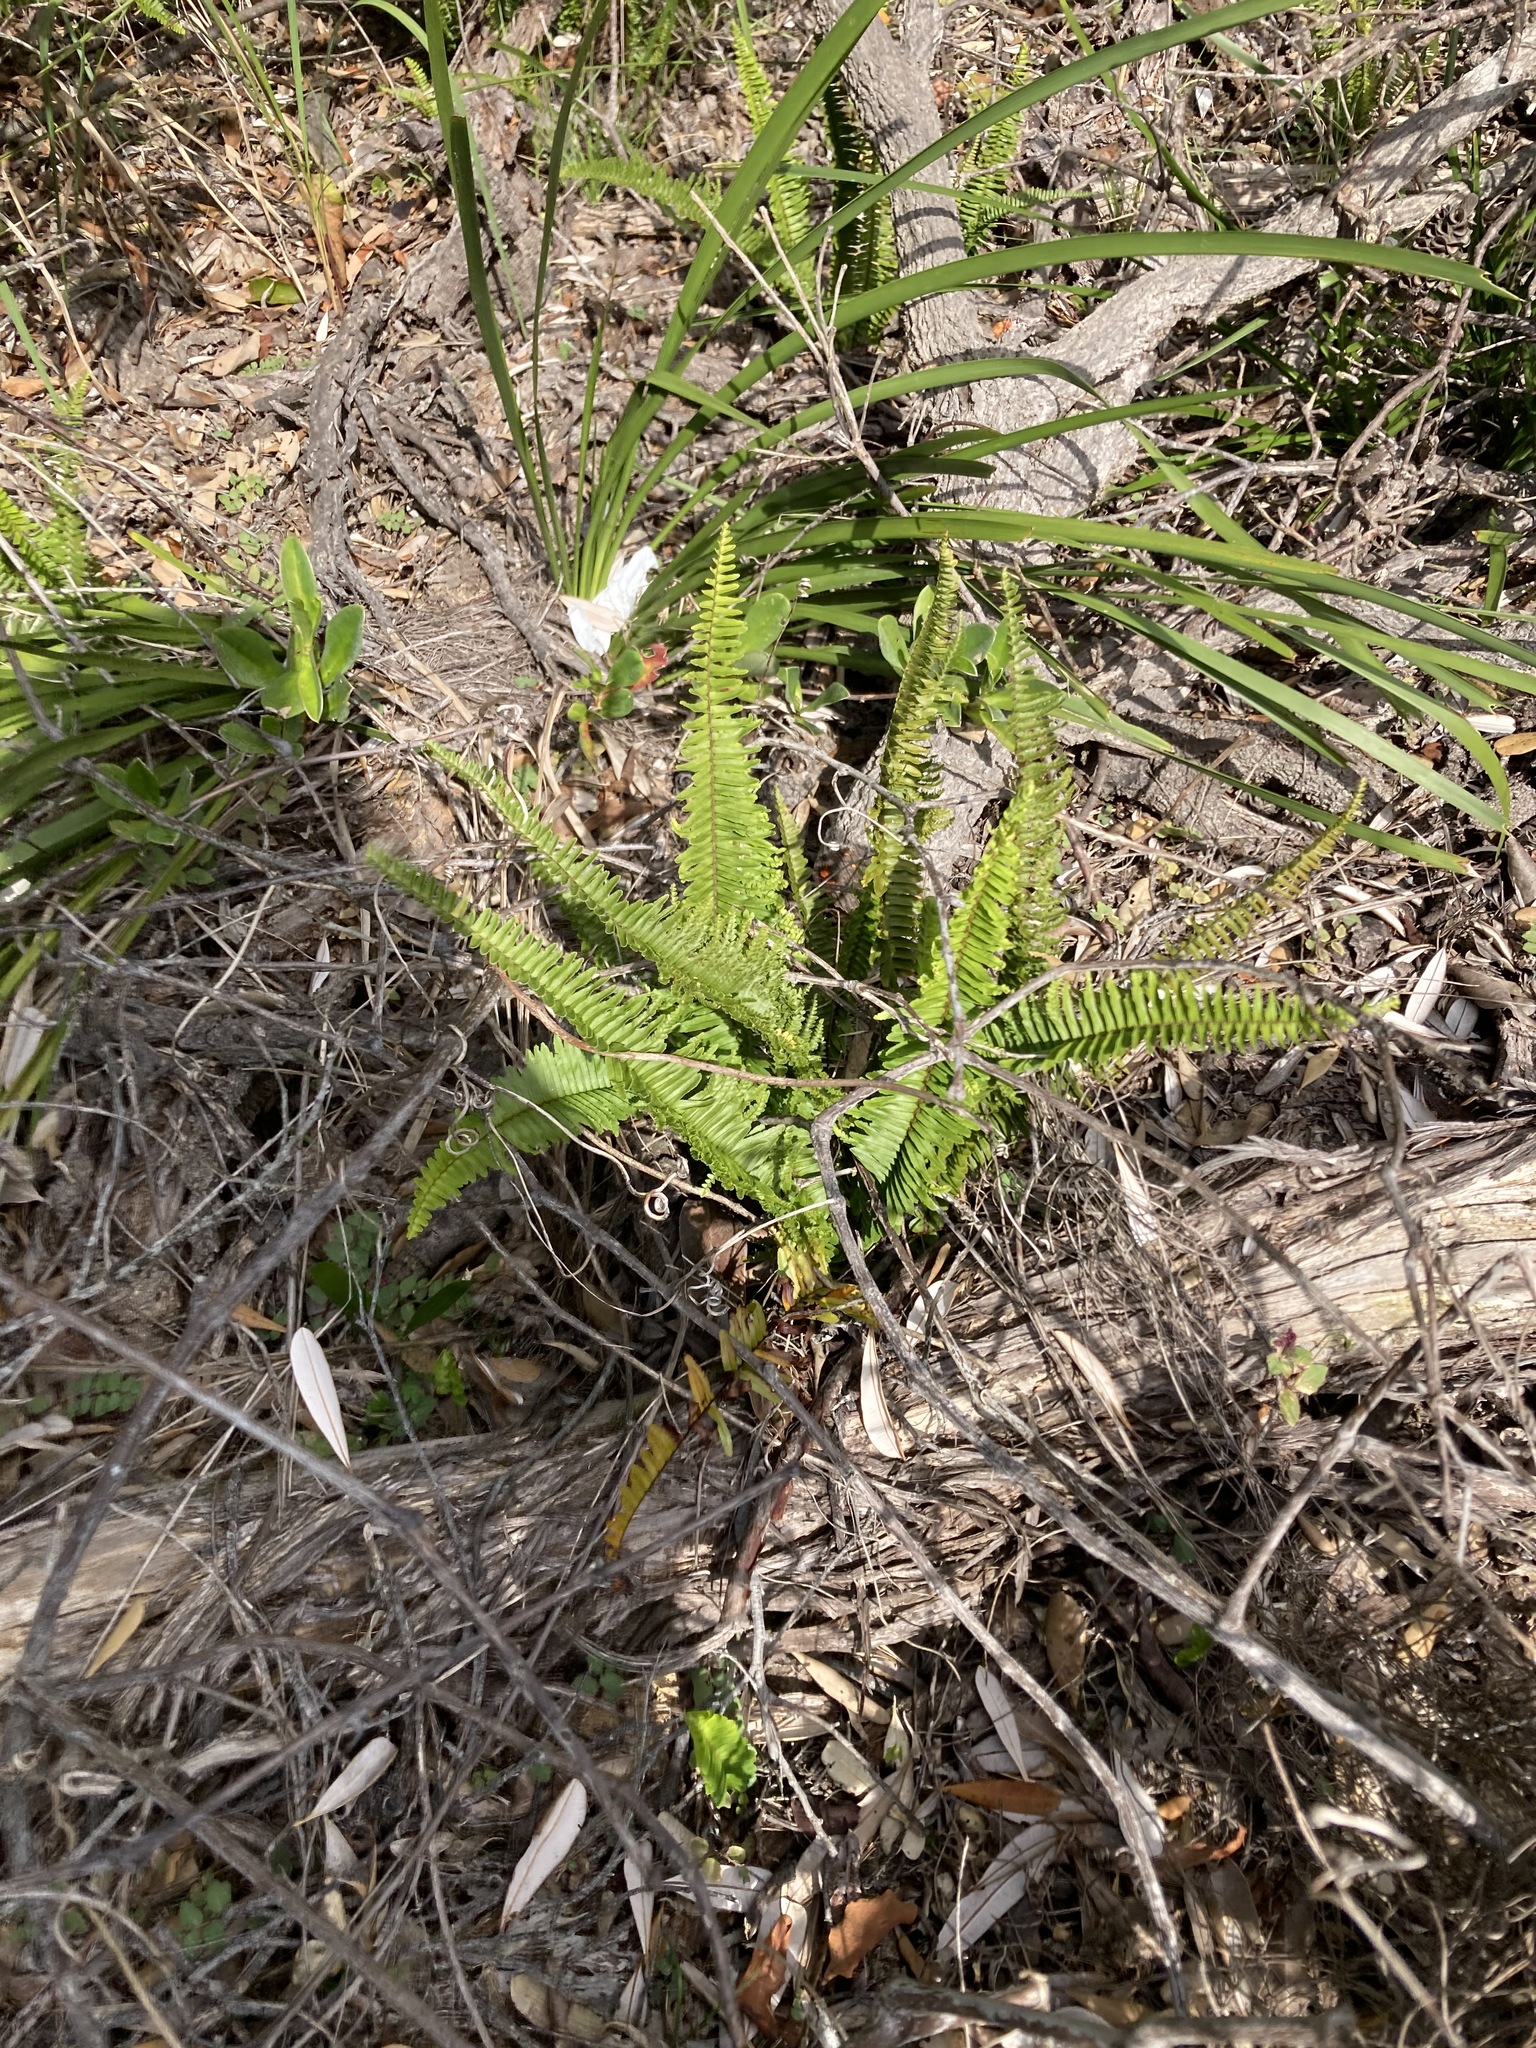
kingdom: Plantae
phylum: Tracheophyta
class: Polypodiopsida
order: Polypodiales
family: Nephrolepidaceae
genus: Nephrolepis
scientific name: Nephrolepis cordifolia
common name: Narrow swordfern
